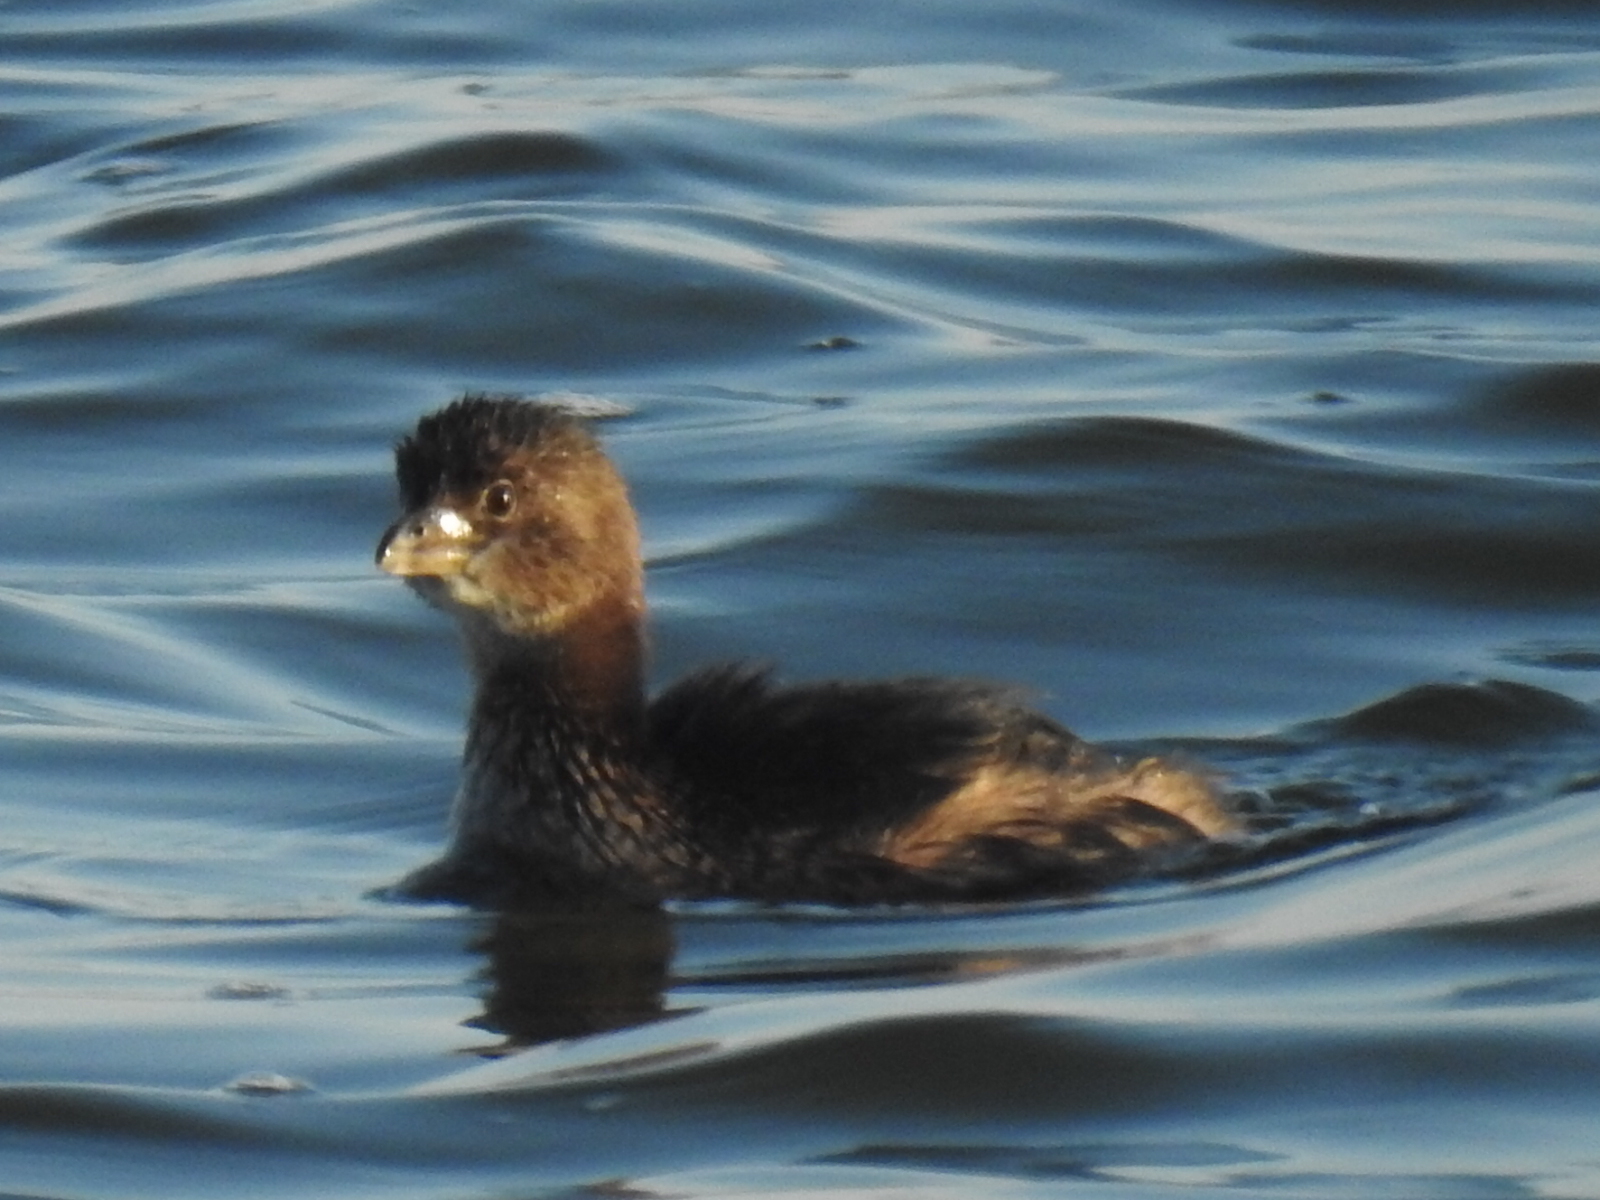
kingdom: Animalia
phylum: Chordata
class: Aves
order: Podicipediformes
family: Podicipedidae
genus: Podilymbus
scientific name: Podilymbus podiceps
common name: Pied-billed grebe
